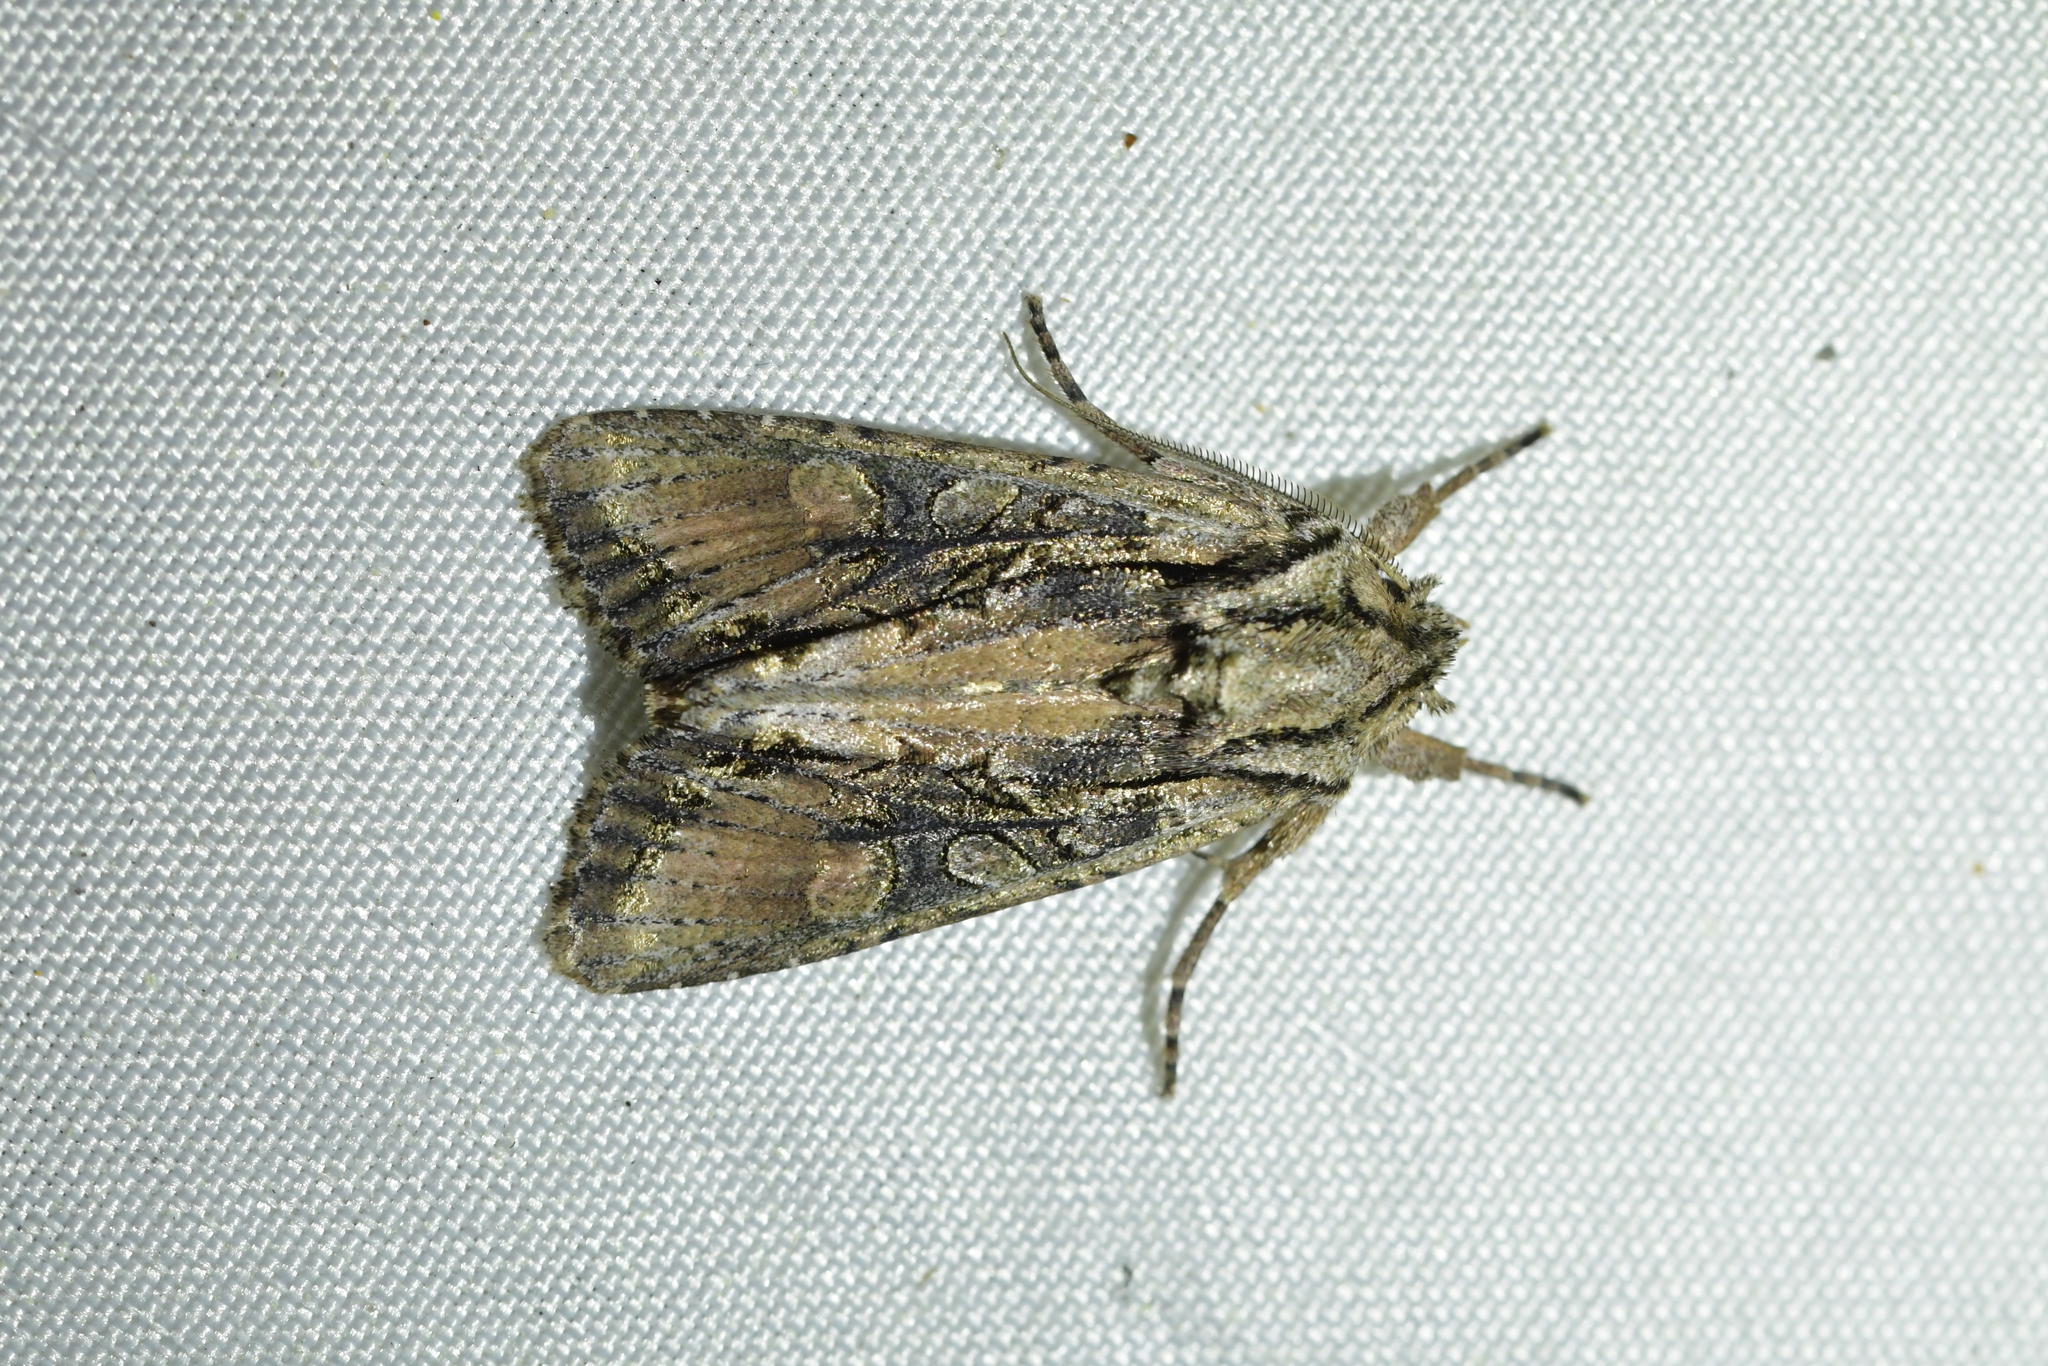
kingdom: Animalia
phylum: Arthropoda
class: Insecta
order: Lepidoptera
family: Noctuidae
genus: Ichneutica
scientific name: Ichneutica mutans
